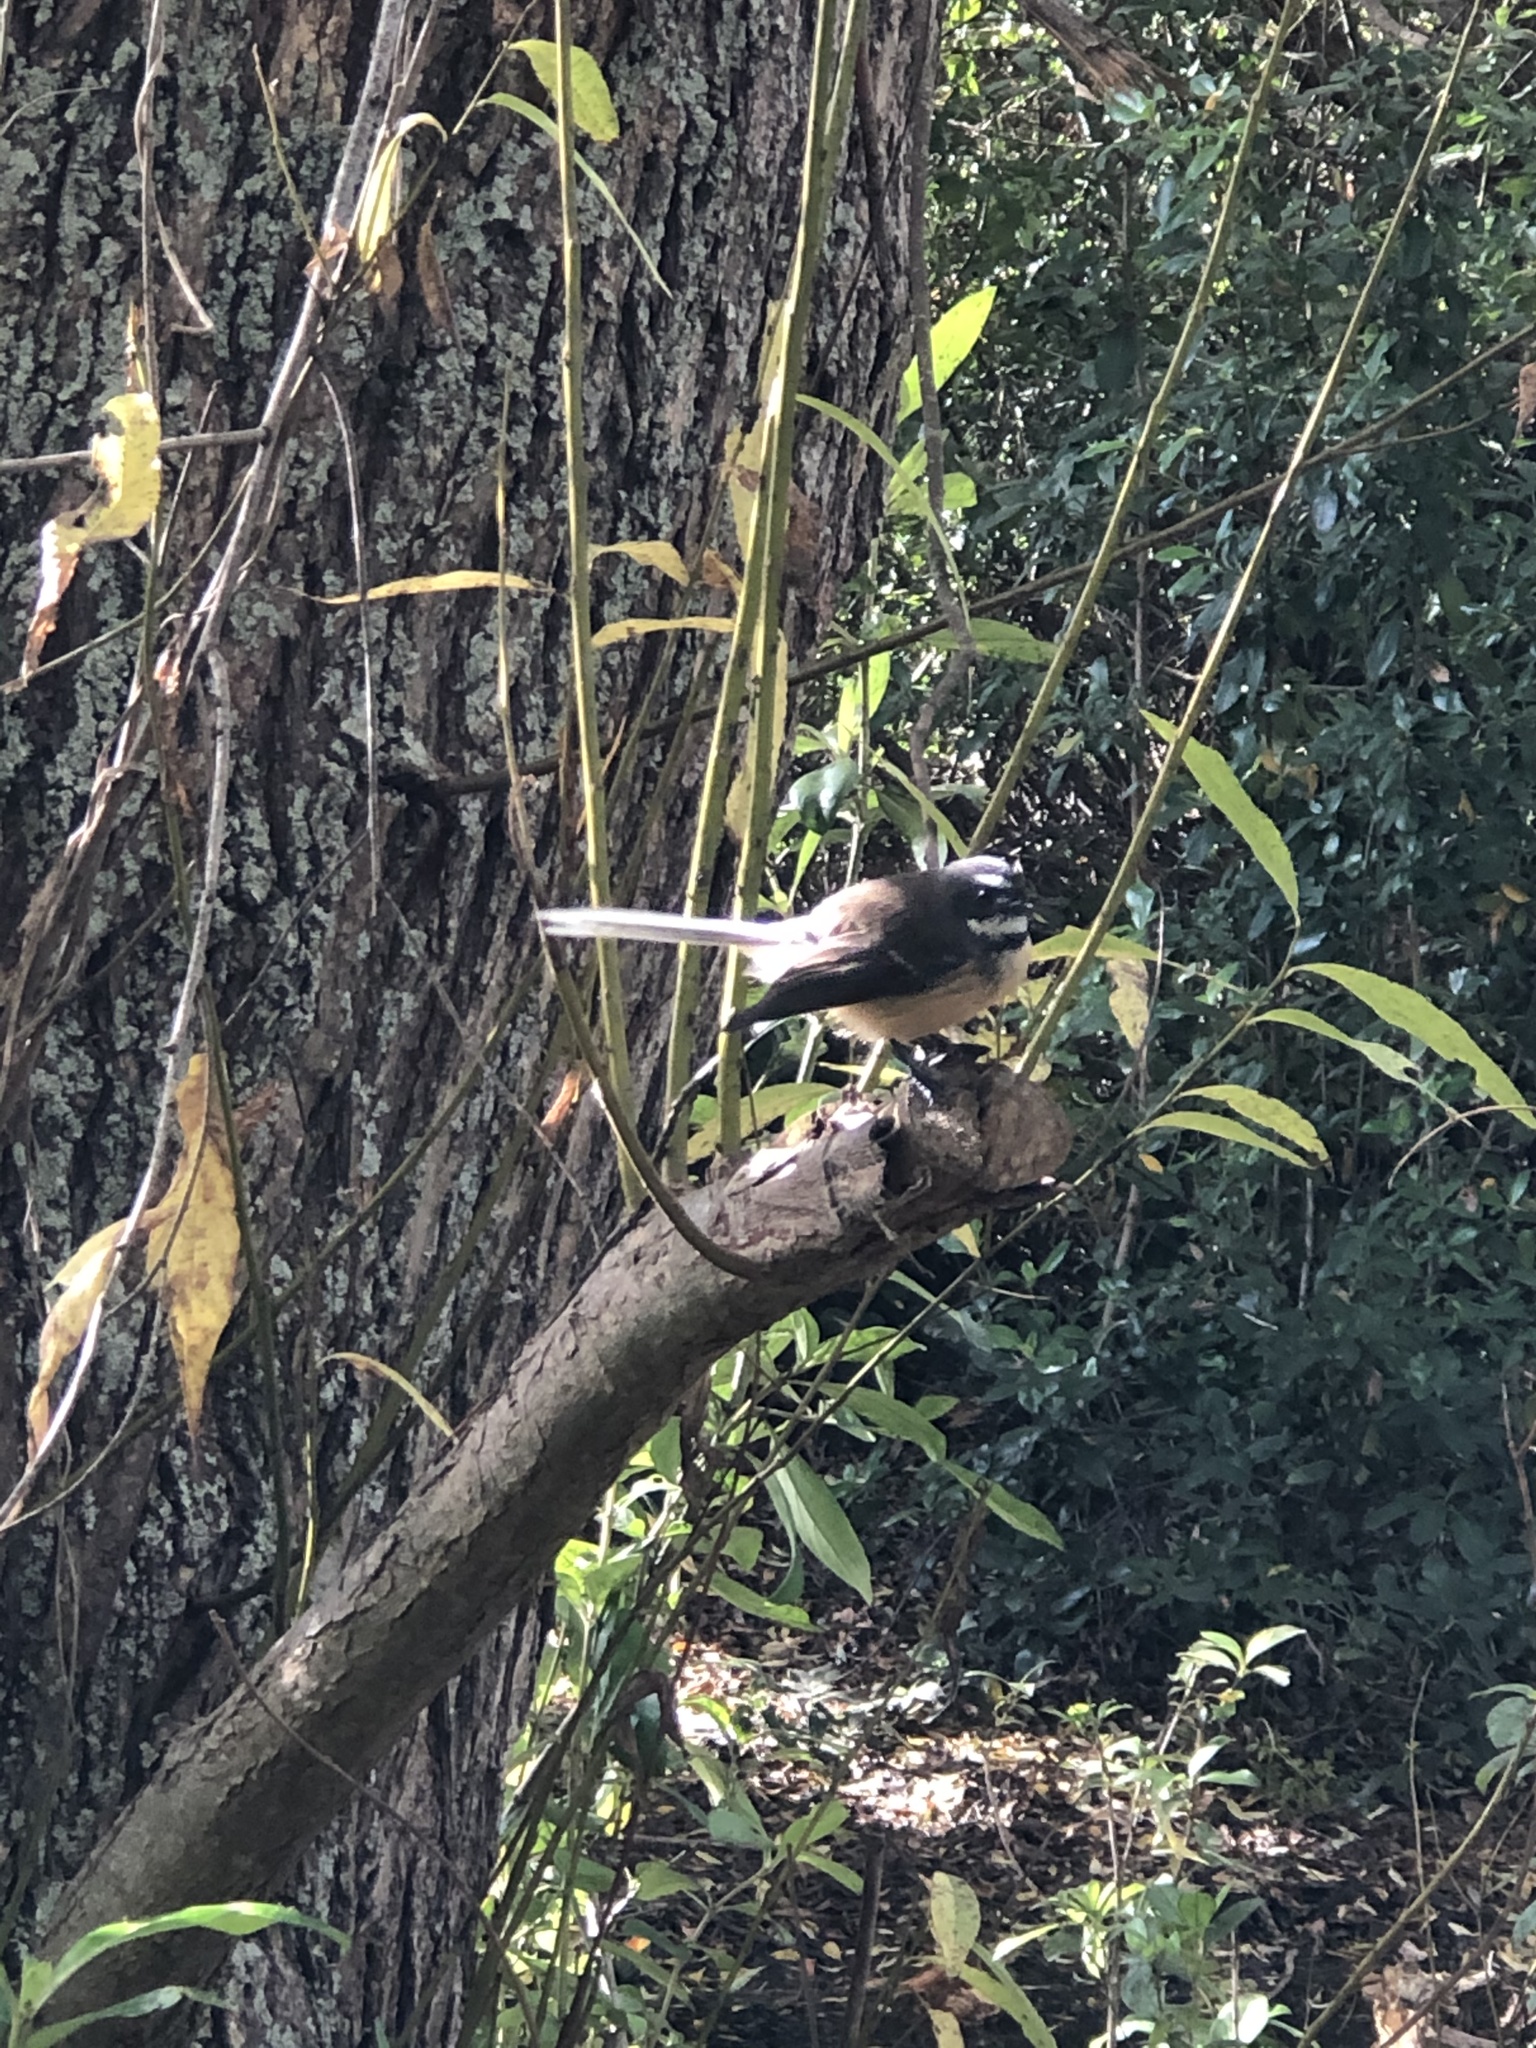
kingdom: Animalia
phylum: Chordata
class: Aves
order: Passeriformes
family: Rhipiduridae
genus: Rhipidura
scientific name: Rhipidura fuliginosa
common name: New zealand fantail
